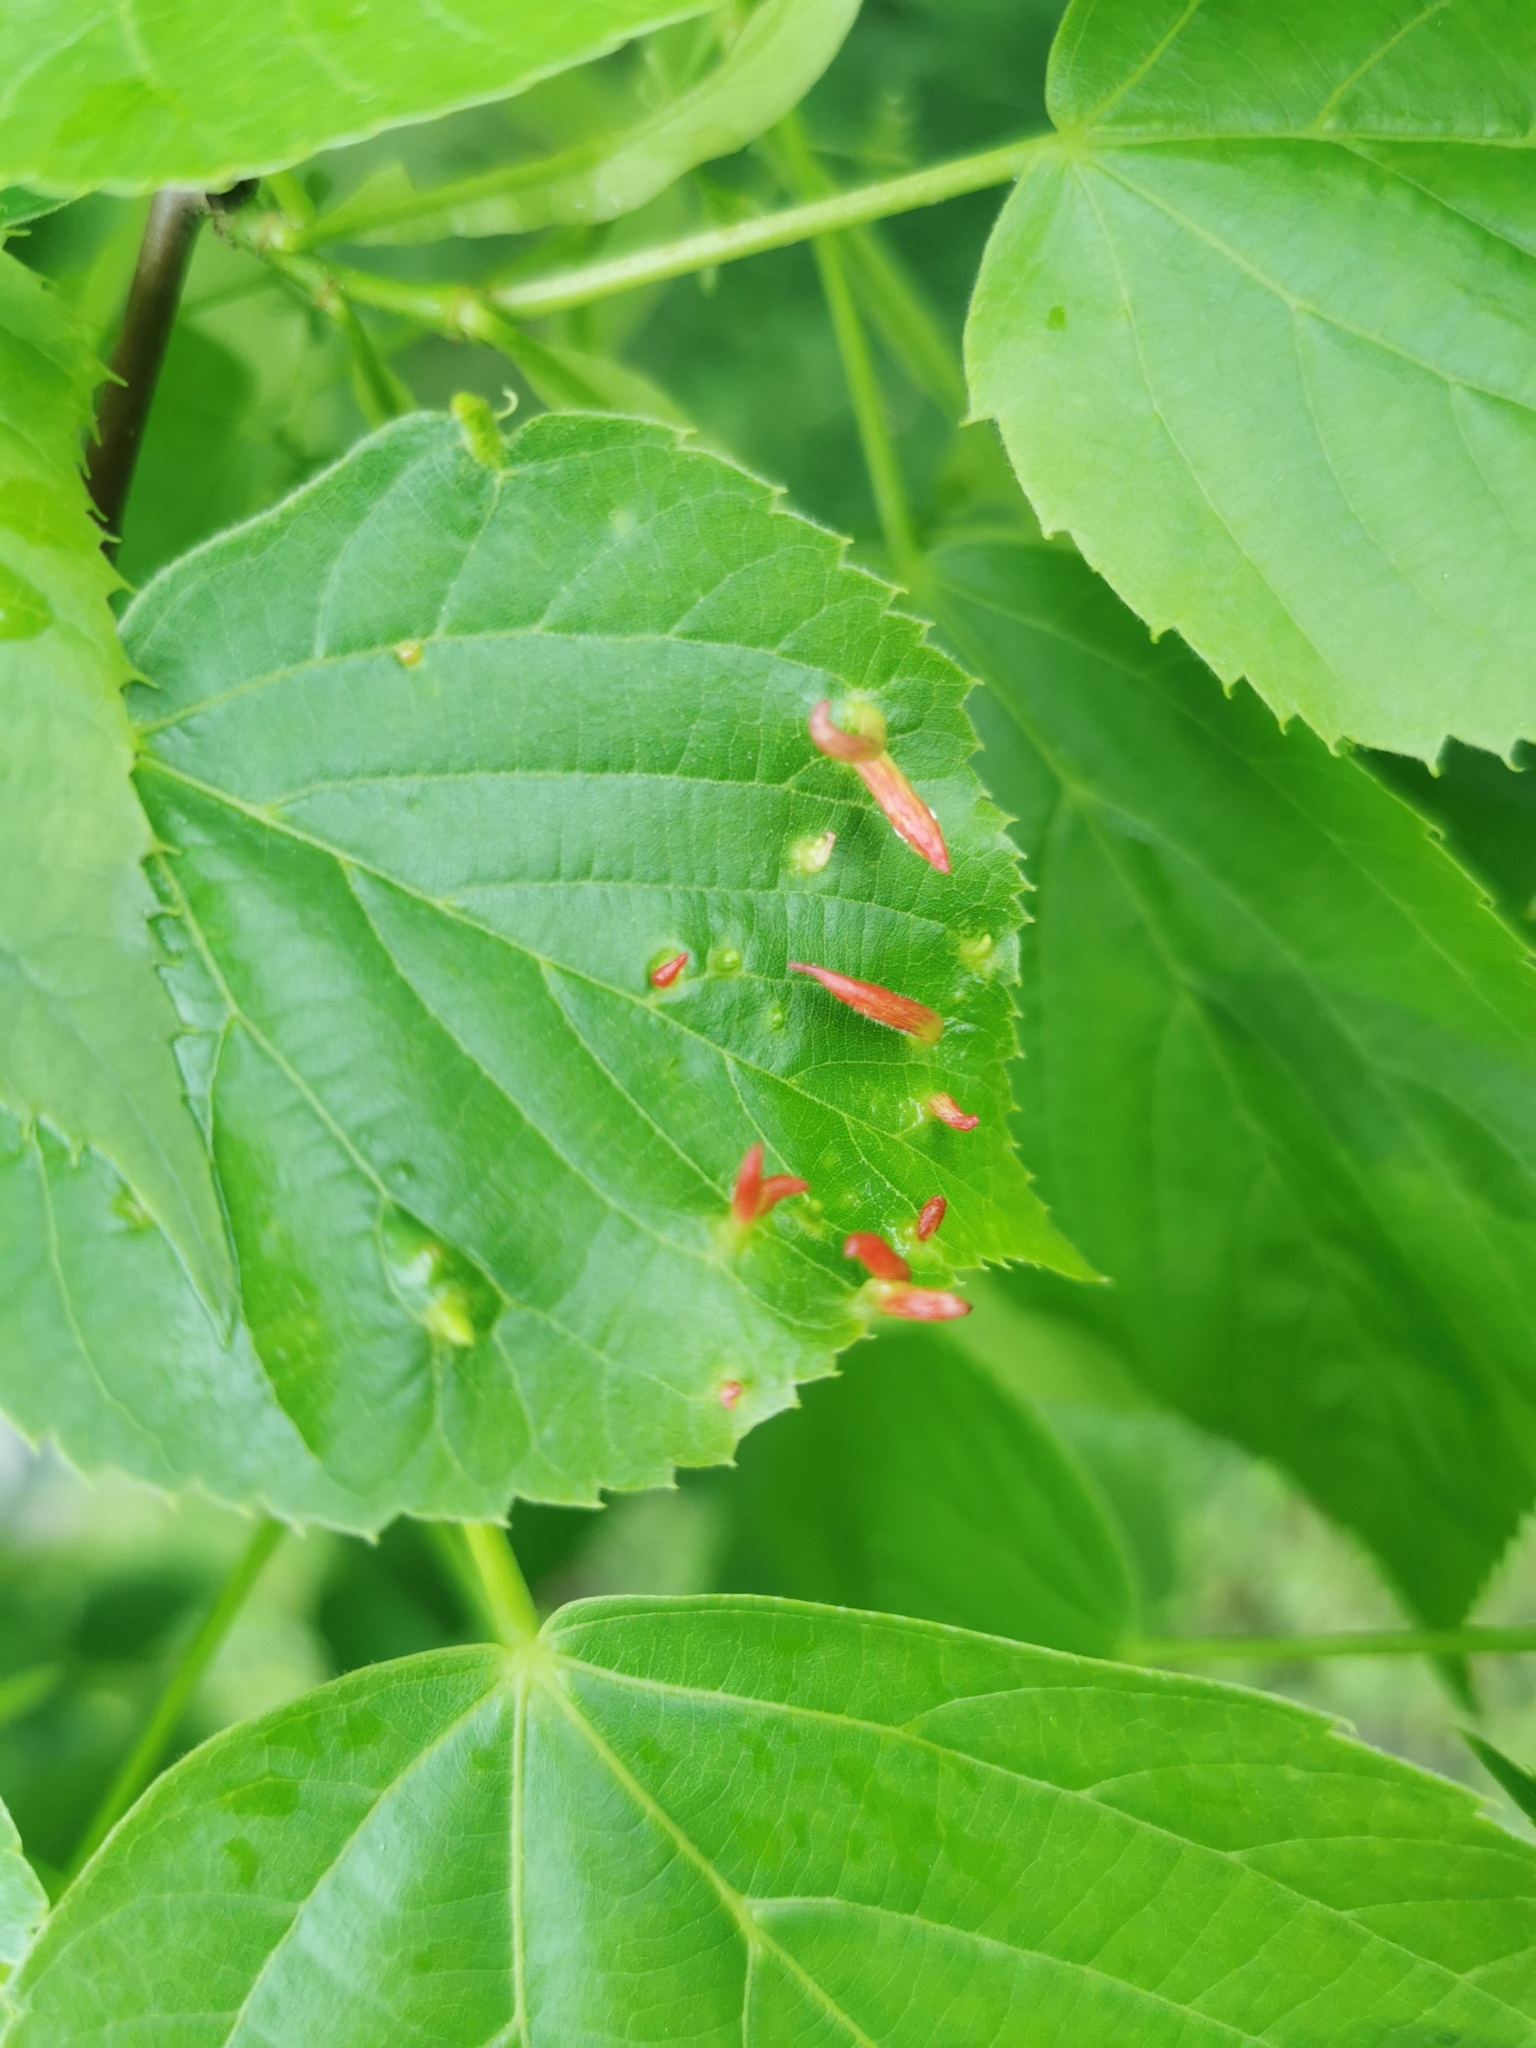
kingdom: Animalia
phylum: Arthropoda
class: Arachnida
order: Trombidiformes
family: Eriophyidae
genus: Eriophyes
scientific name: Eriophyes tiliae
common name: Red nail gall mite
